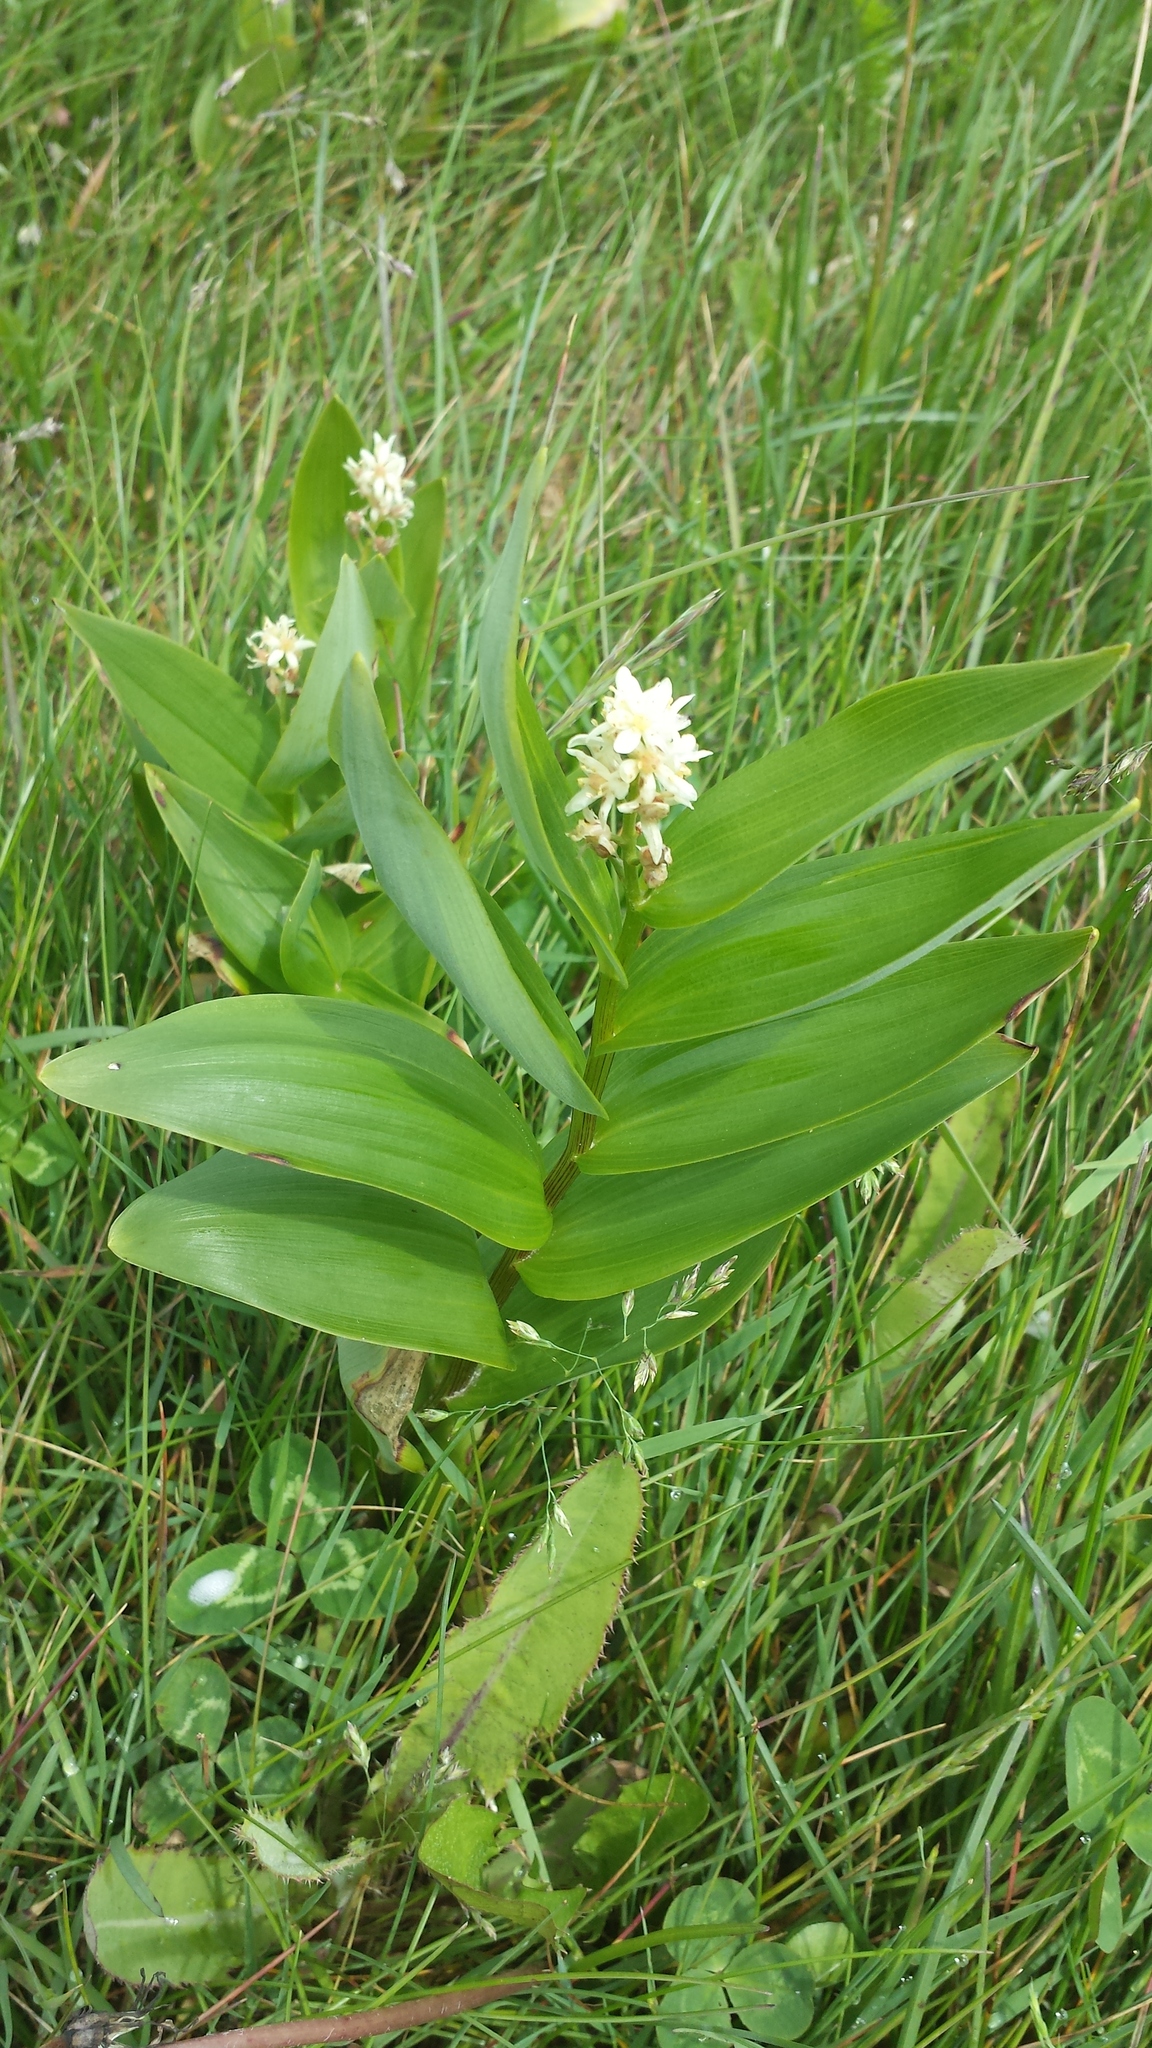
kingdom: Plantae
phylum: Tracheophyta
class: Liliopsida
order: Asparagales
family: Asparagaceae
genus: Maianthemum
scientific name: Maianthemum stellatum
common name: Little false solomon's seal
